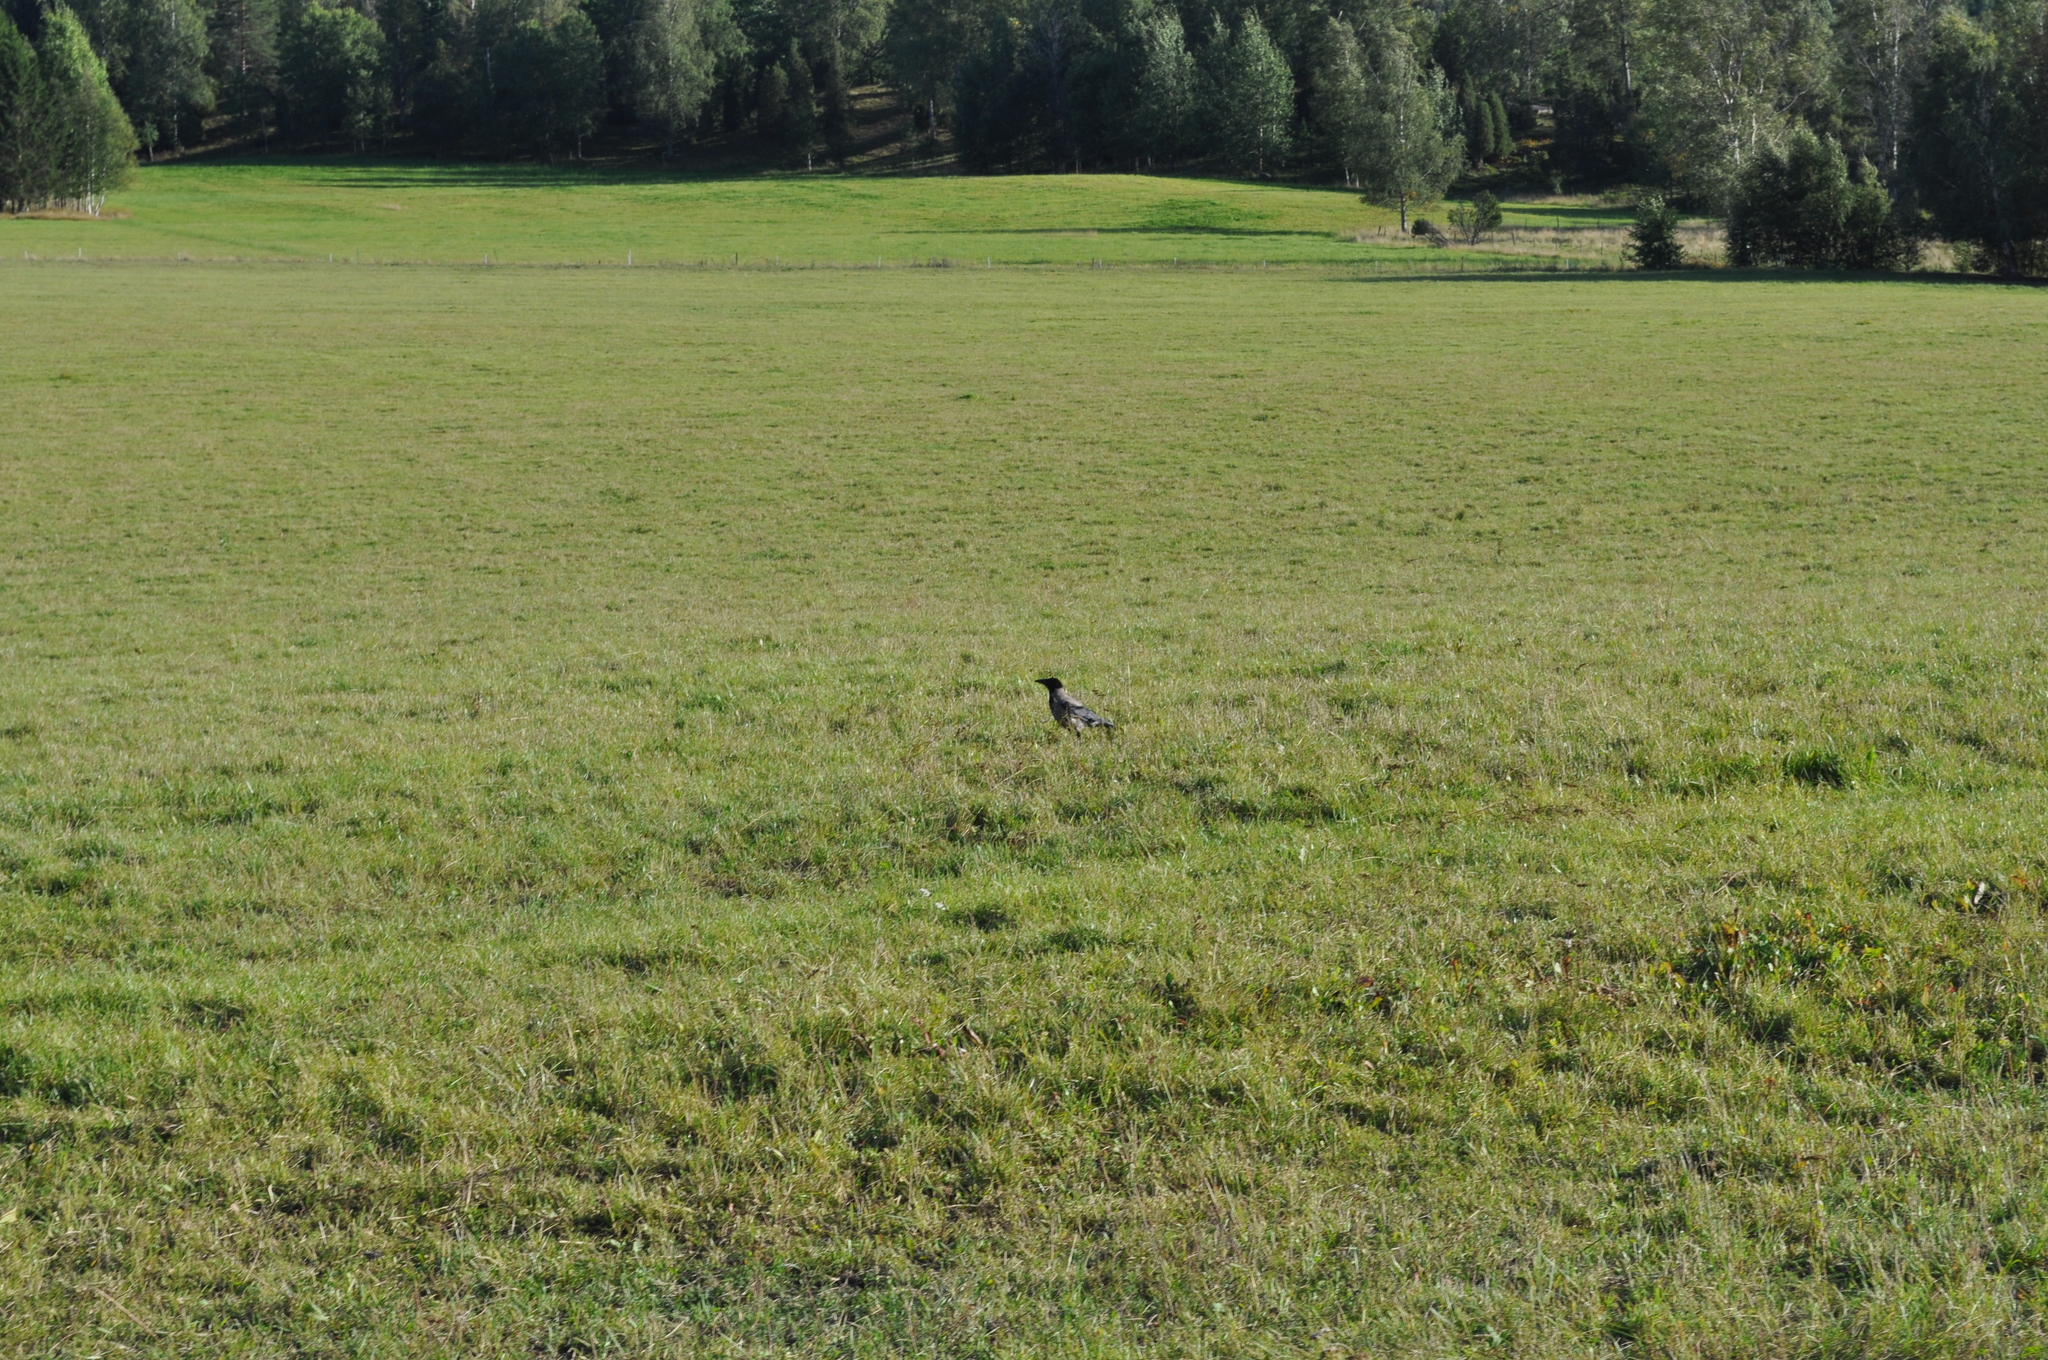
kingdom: Animalia
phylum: Chordata
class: Aves
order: Passeriformes
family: Corvidae
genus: Corvus
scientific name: Corvus cornix
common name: Hooded crow
